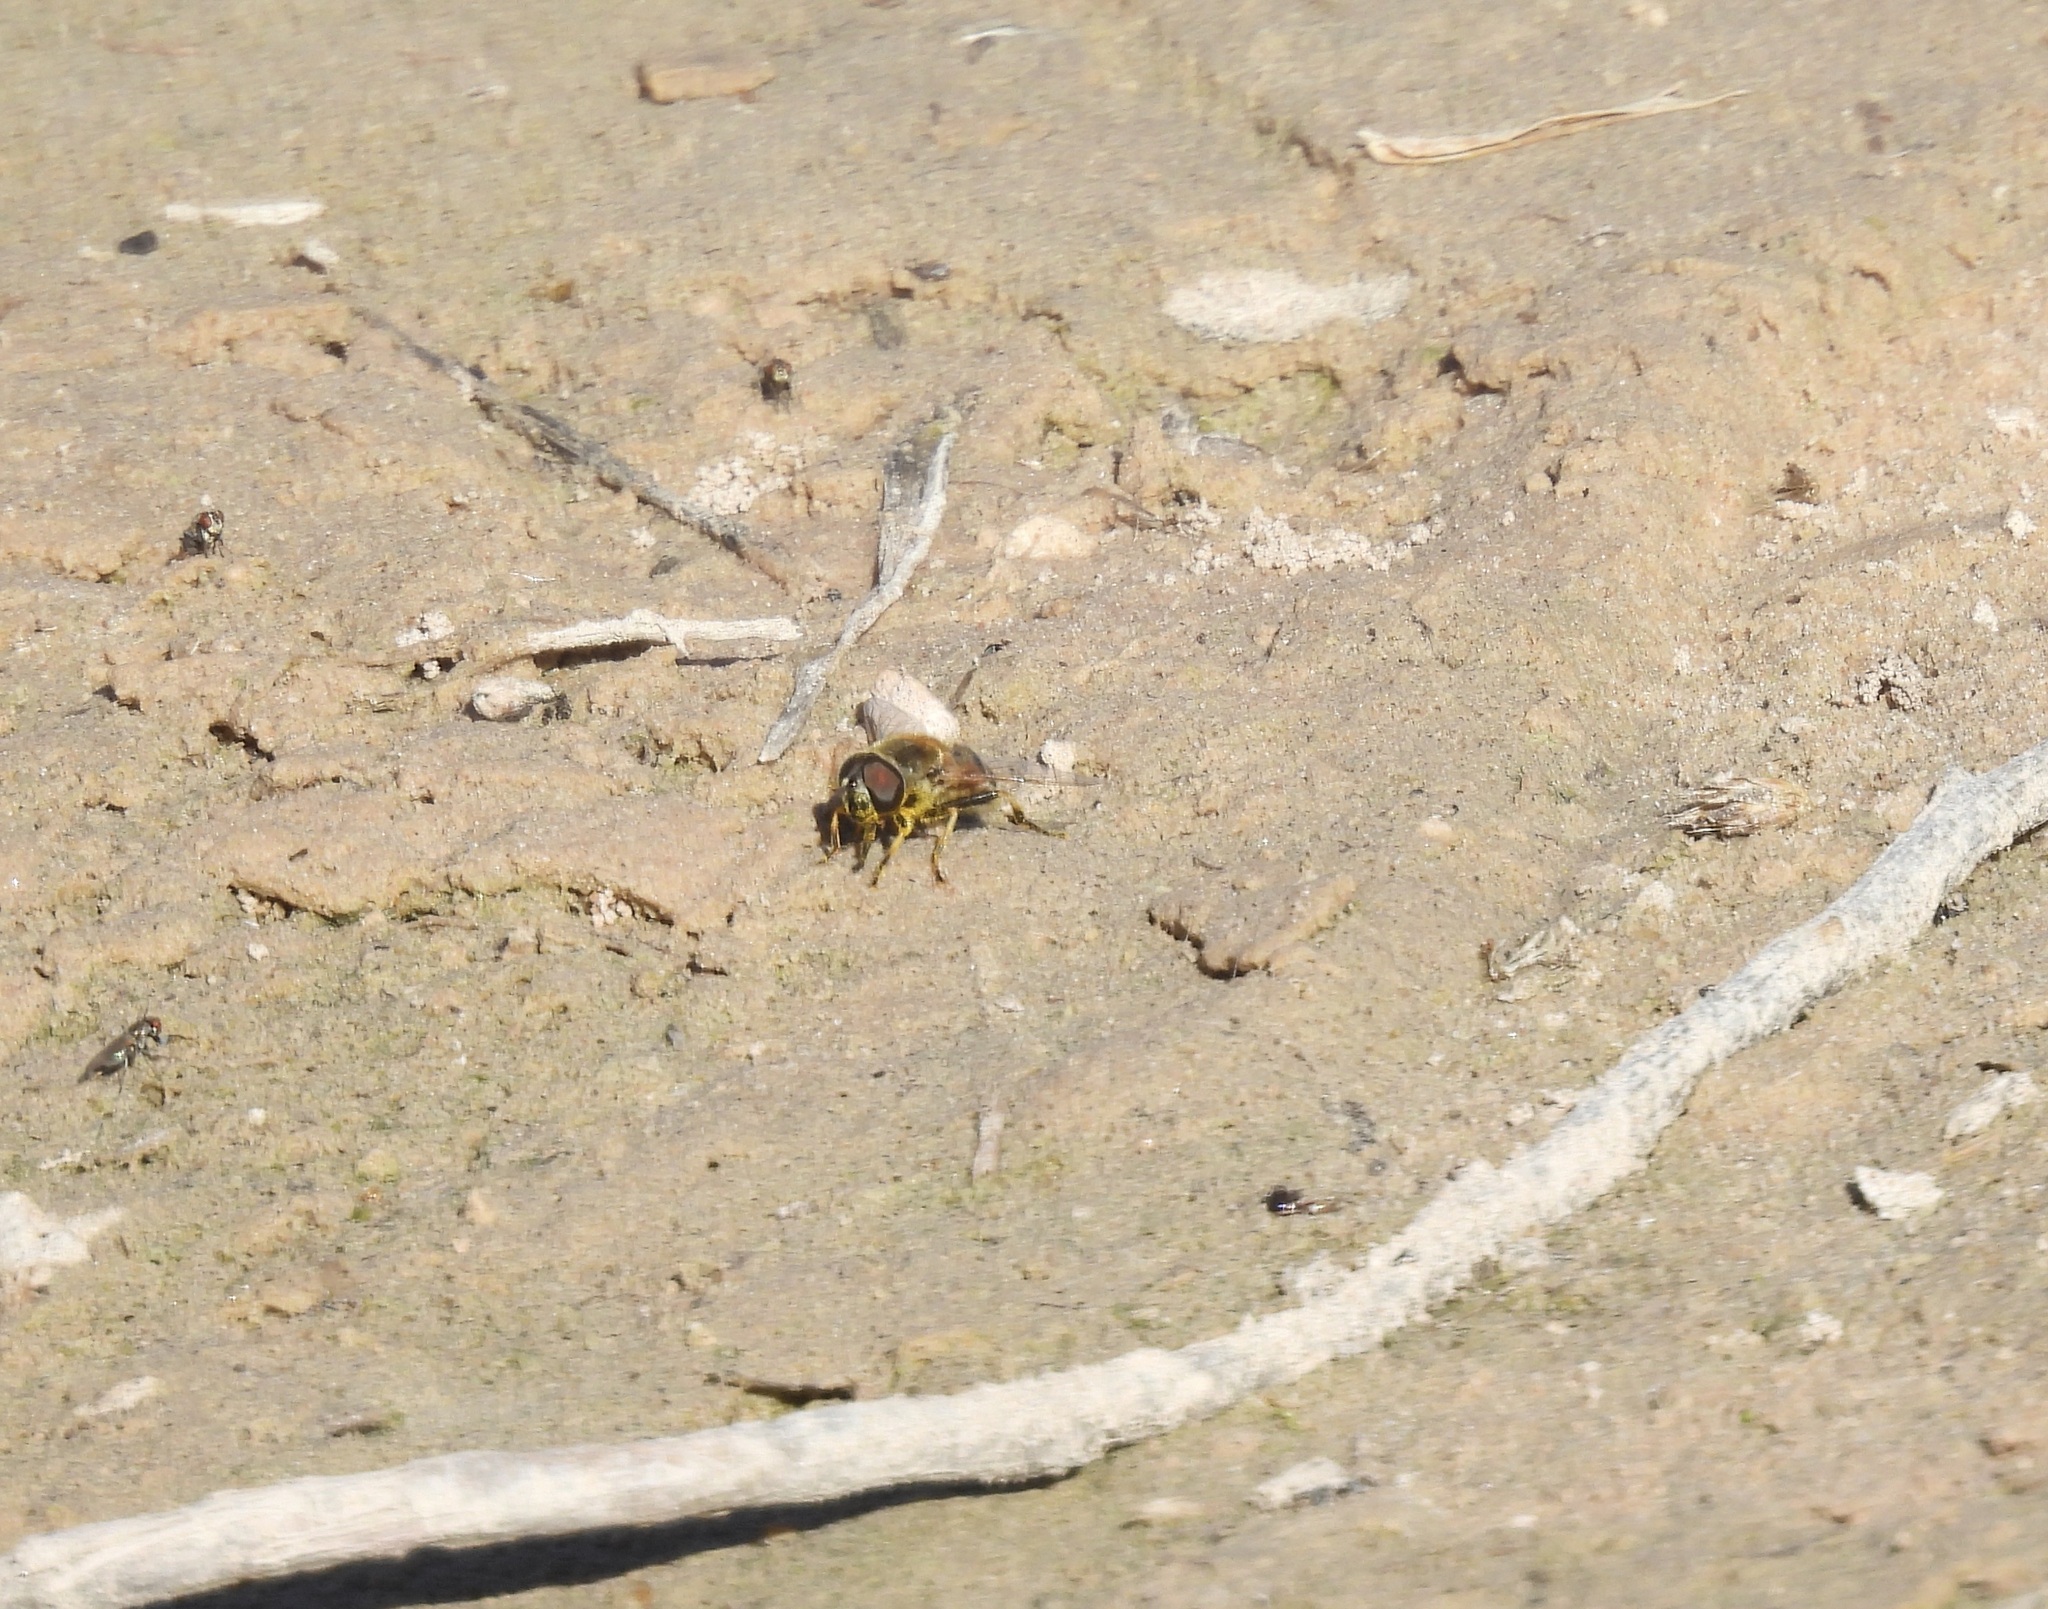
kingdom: Animalia
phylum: Arthropoda
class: Insecta
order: Diptera
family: Syrphidae
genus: Eristalis
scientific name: Eristalis stipator
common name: Yellow-shouldered drone fly
